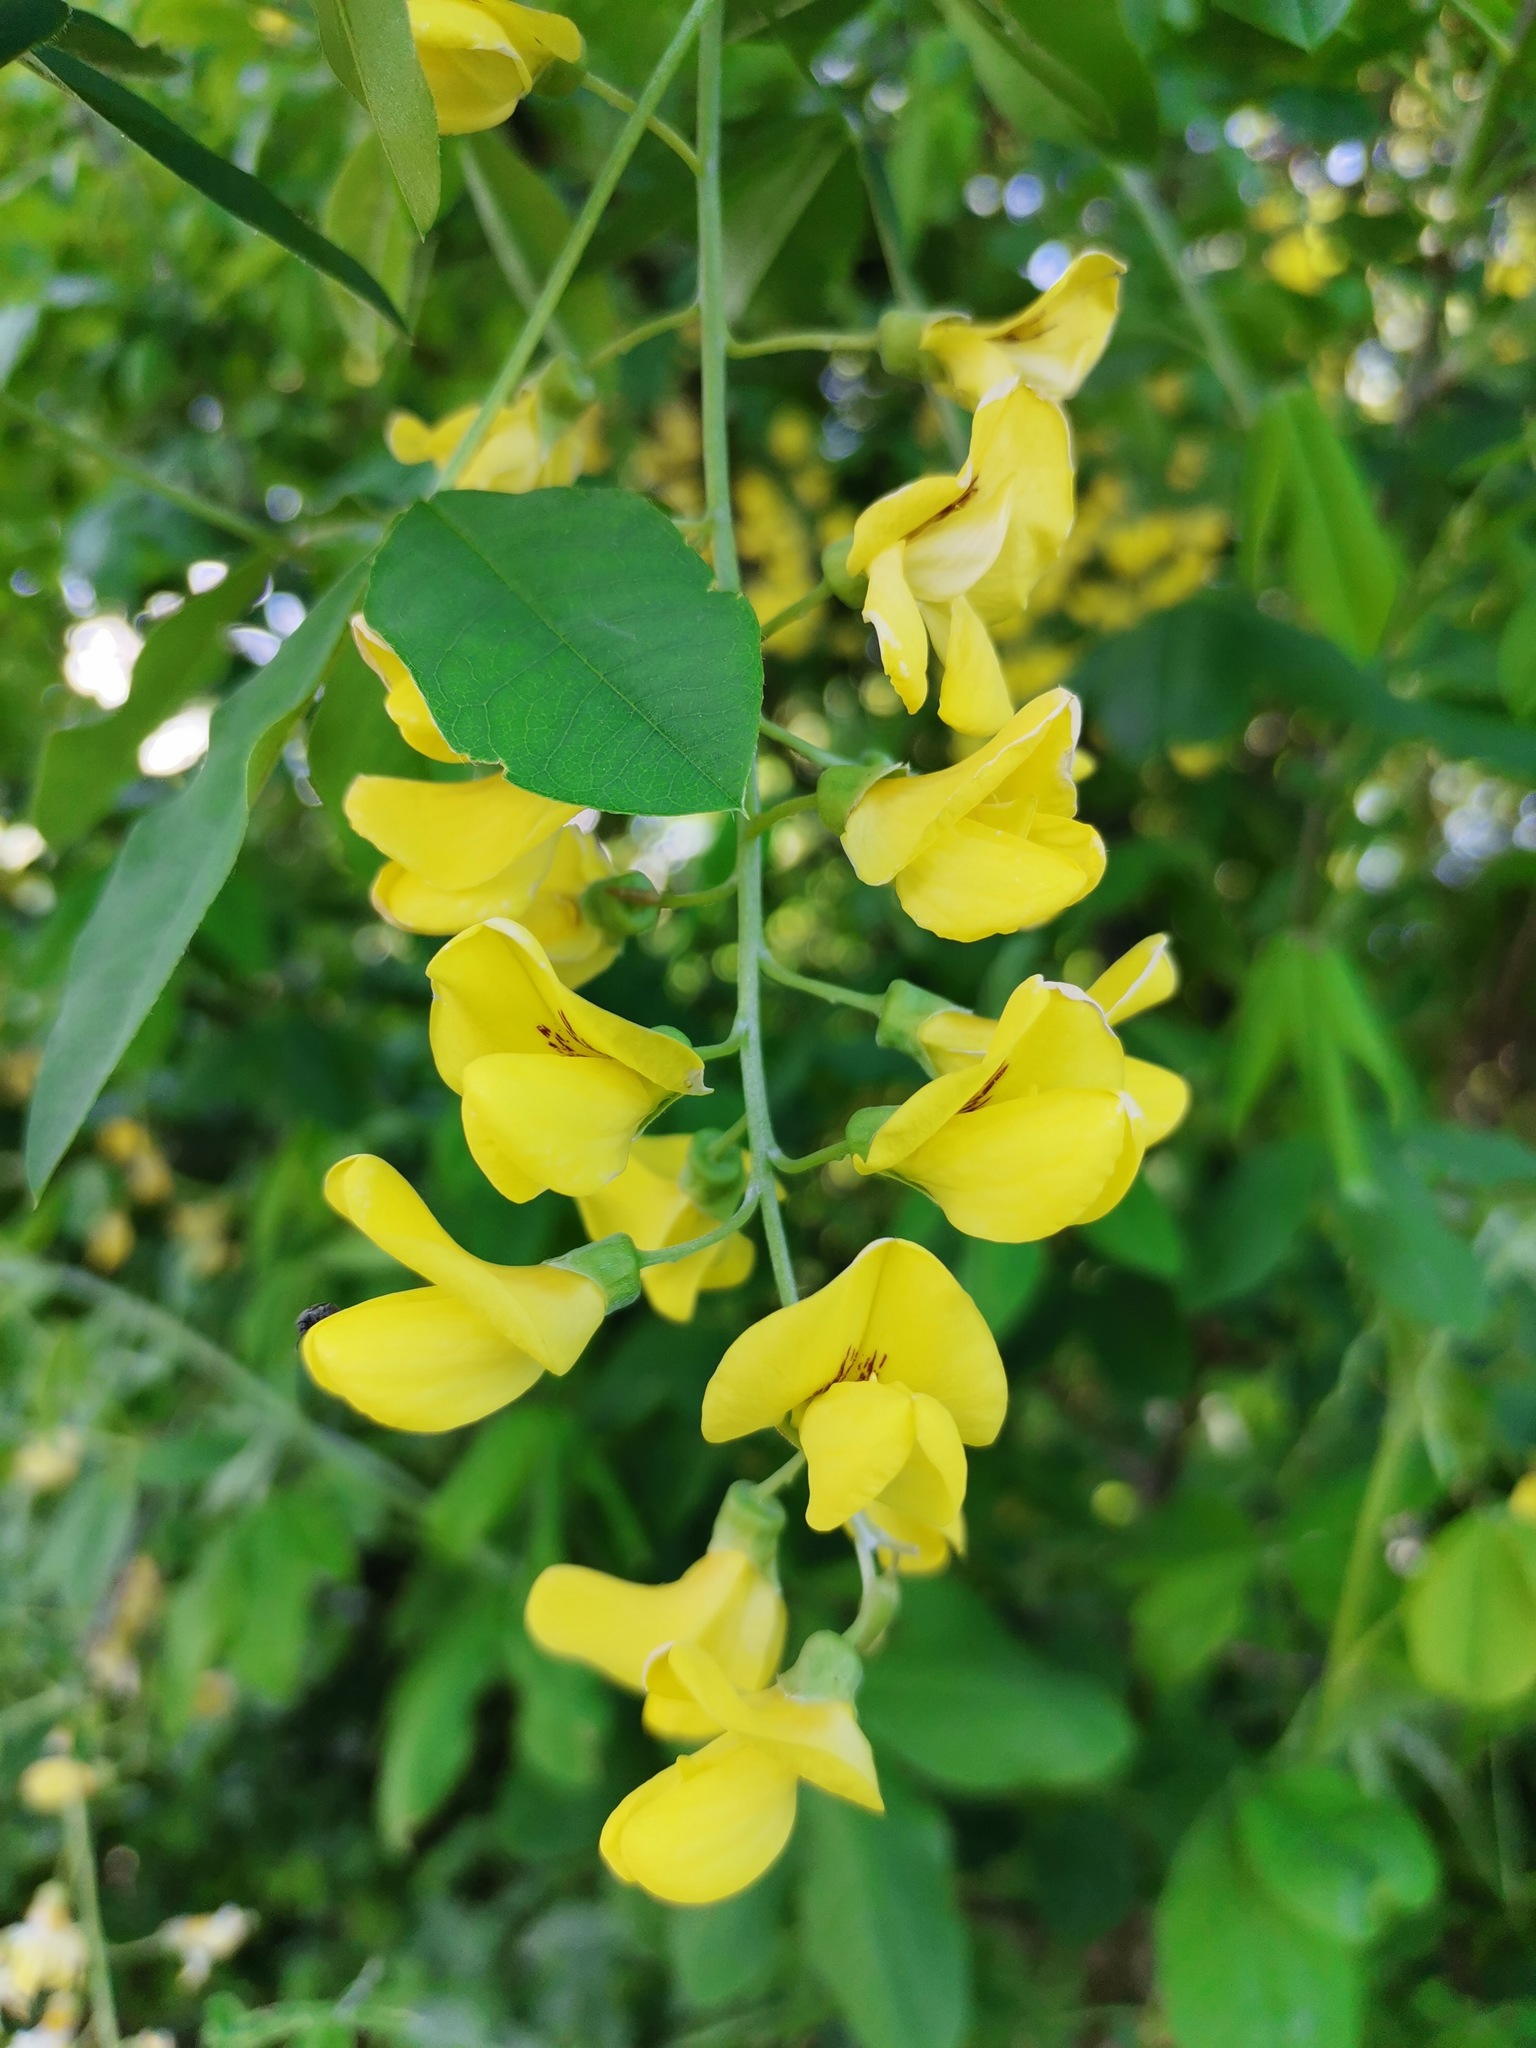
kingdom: Plantae
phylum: Tracheophyta
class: Magnoliopsida
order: Fabales
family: Fabaceae
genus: Laburnum
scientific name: Laburnum anagyroides
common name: Laburnum
